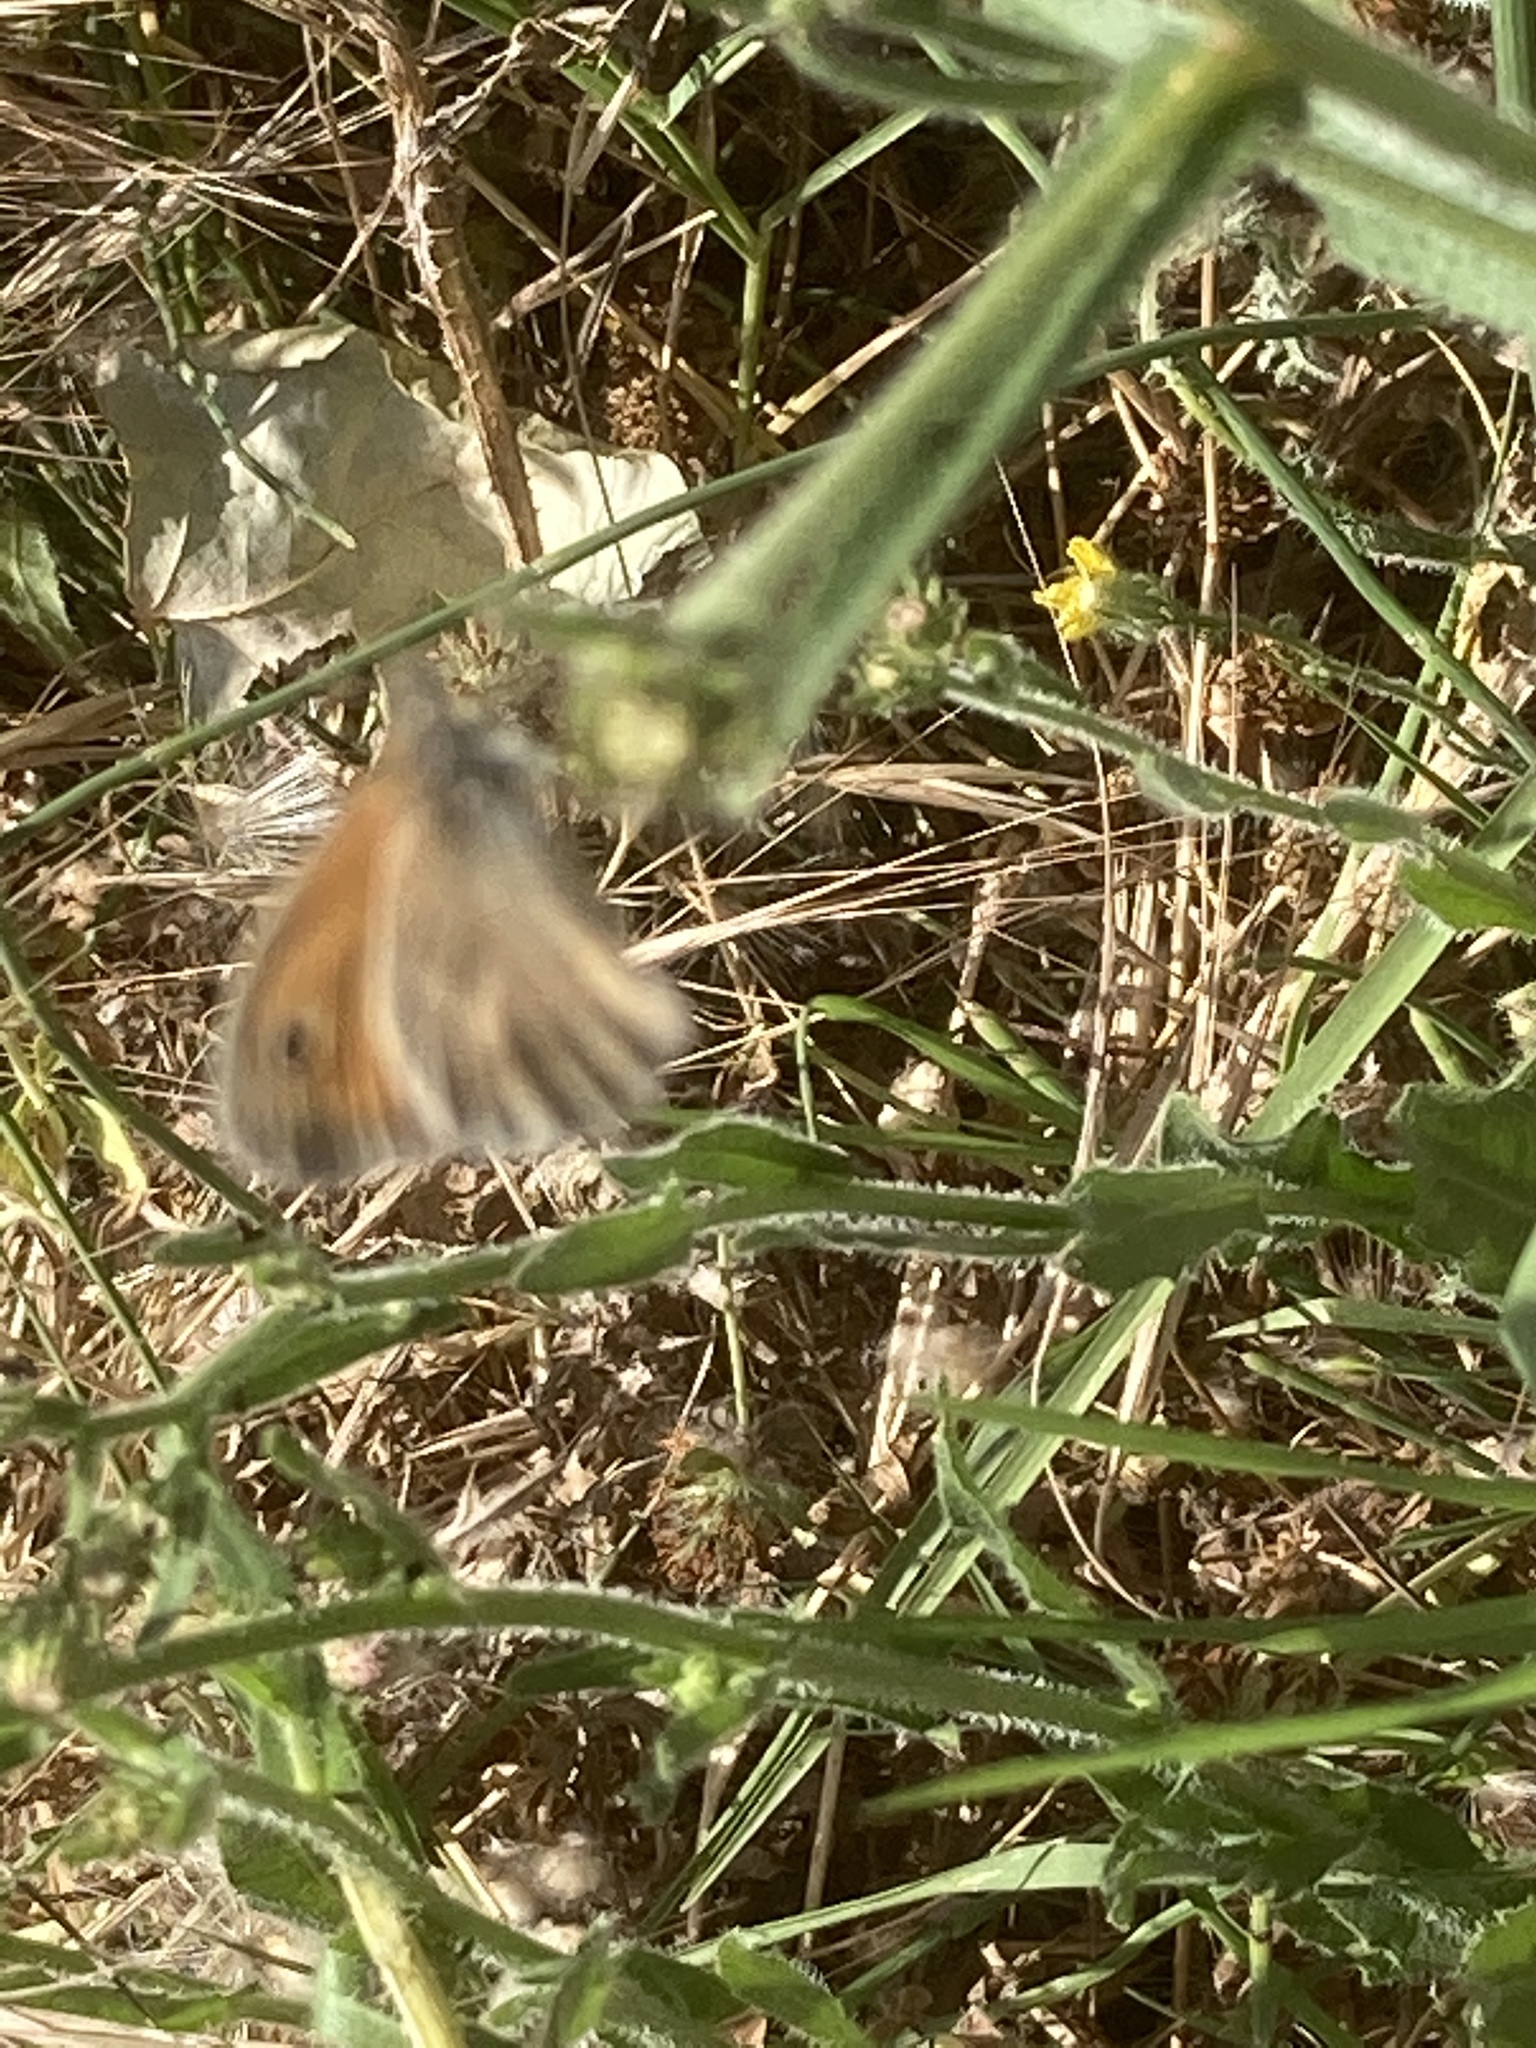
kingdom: Animalia
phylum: Arthropoda
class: Insecta
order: Lepidoptera
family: Nymphalidae
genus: Coenonympha
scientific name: Coenonympha pamphilus
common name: Small heath
